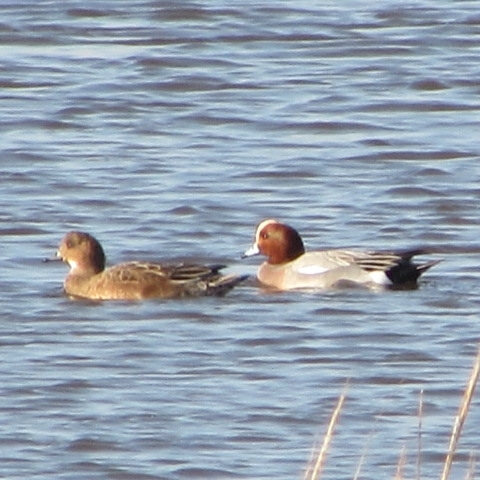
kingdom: Animalia
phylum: Chordata
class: Aves
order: Anseriformes
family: Anatidae
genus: Mareca
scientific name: Mareca penelope
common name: Eurasian wigeon
